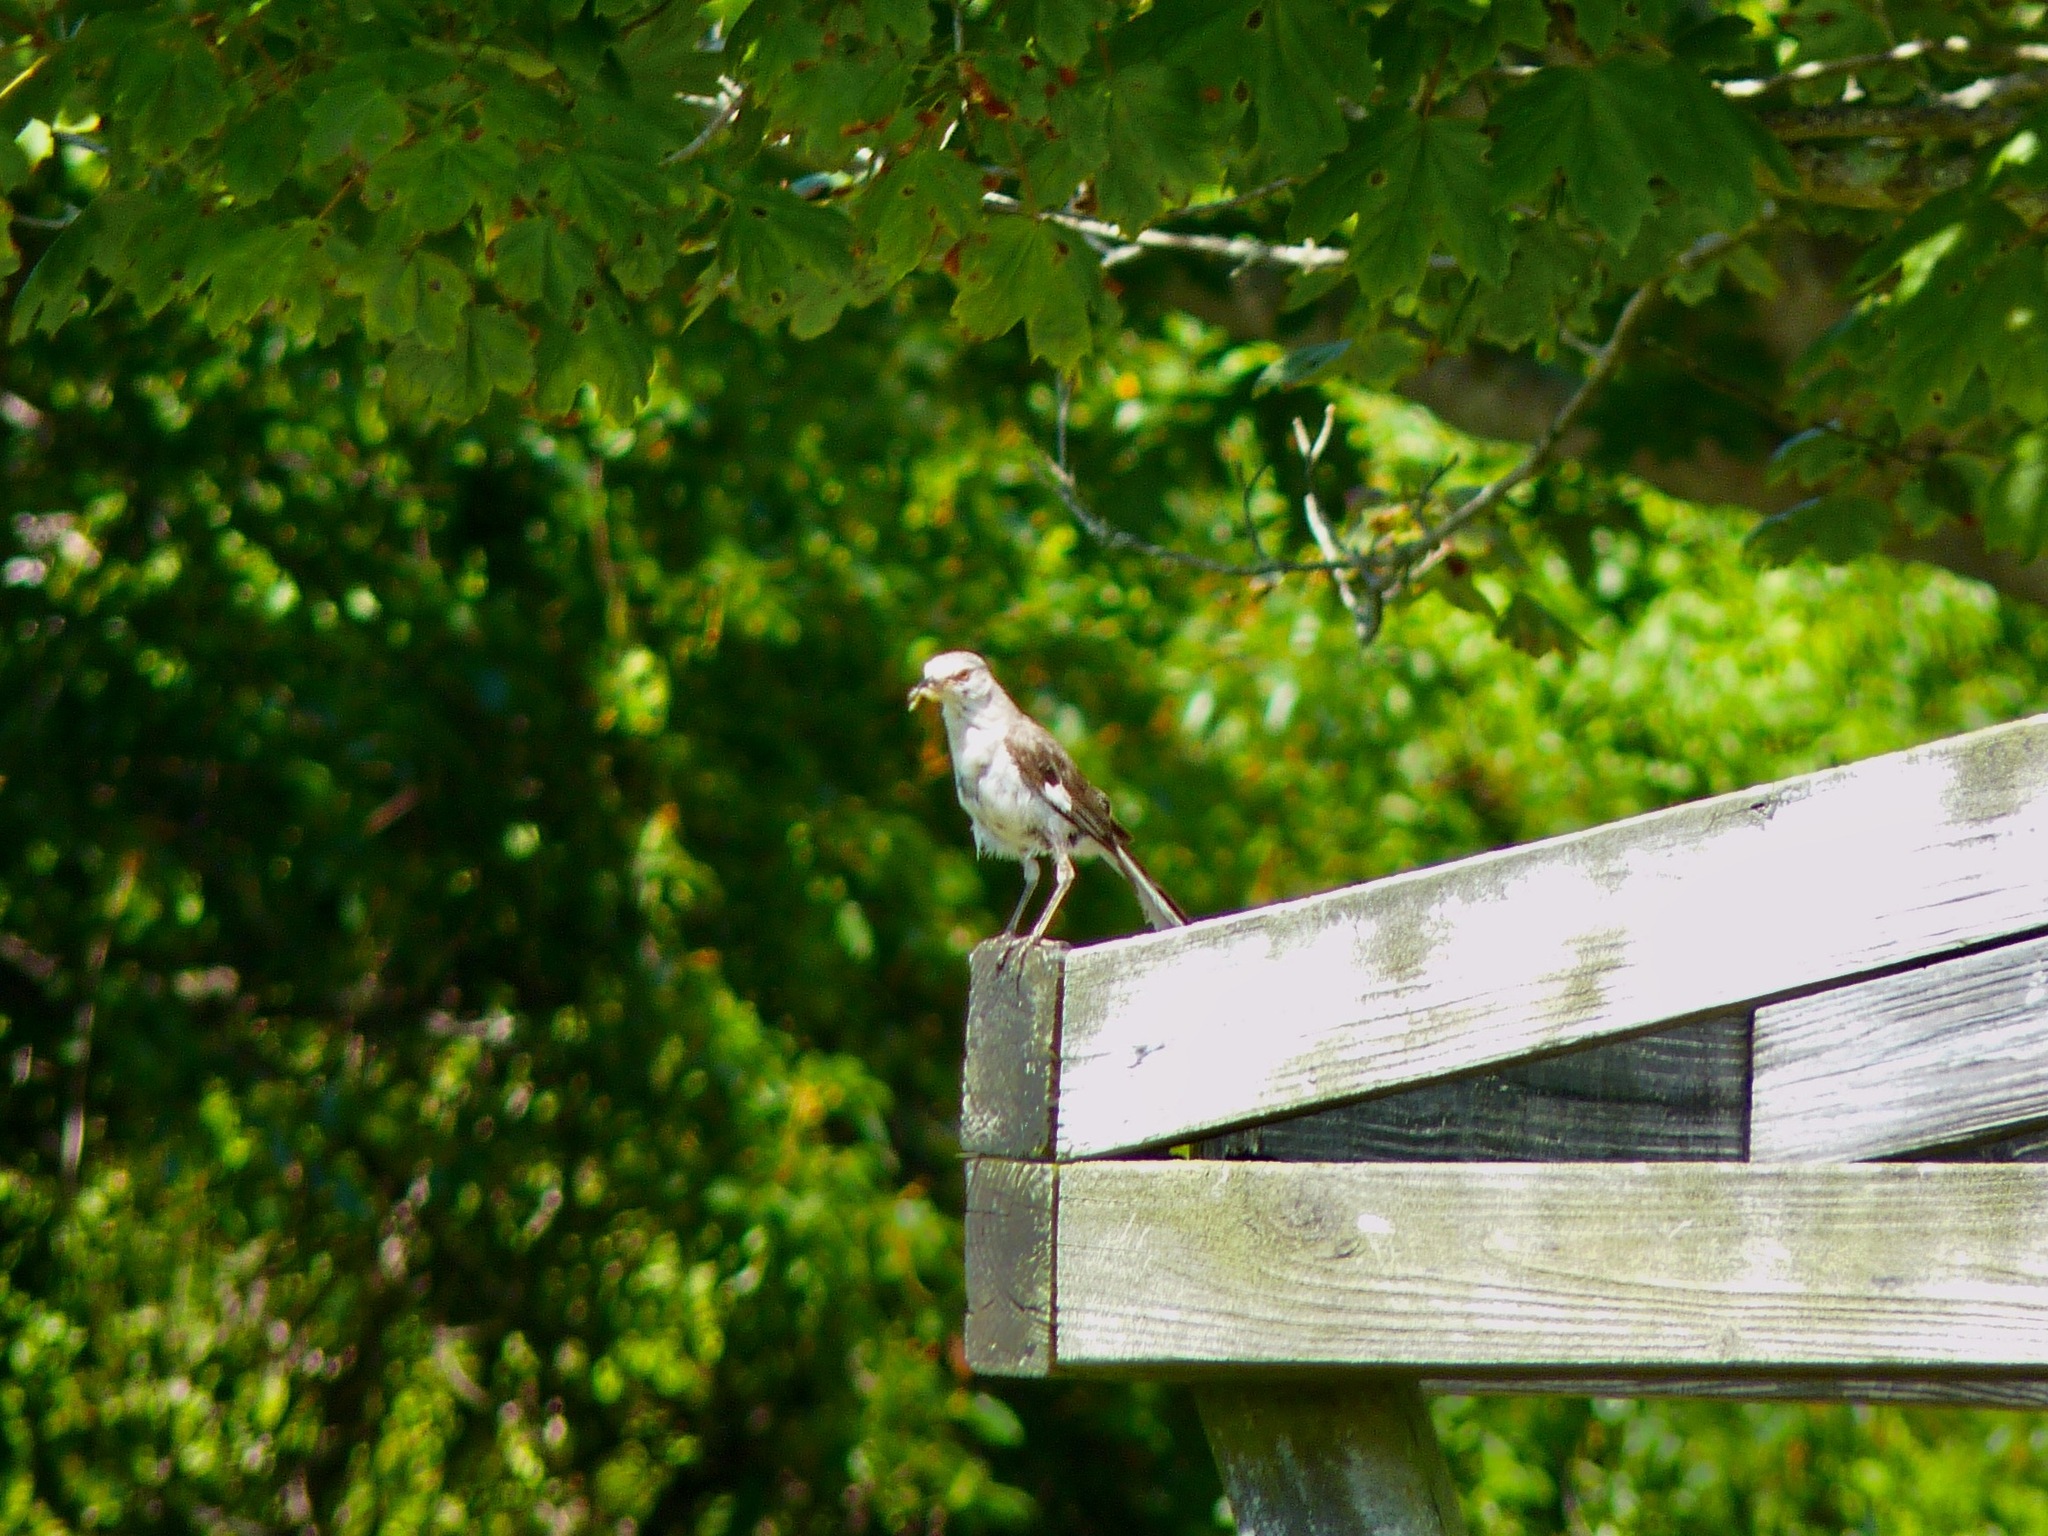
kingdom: Animalia
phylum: Chordata
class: Aves
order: Passeriformes
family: Mimidae
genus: Mimus
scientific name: Mimus polyglottos
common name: Northern mockingbird
